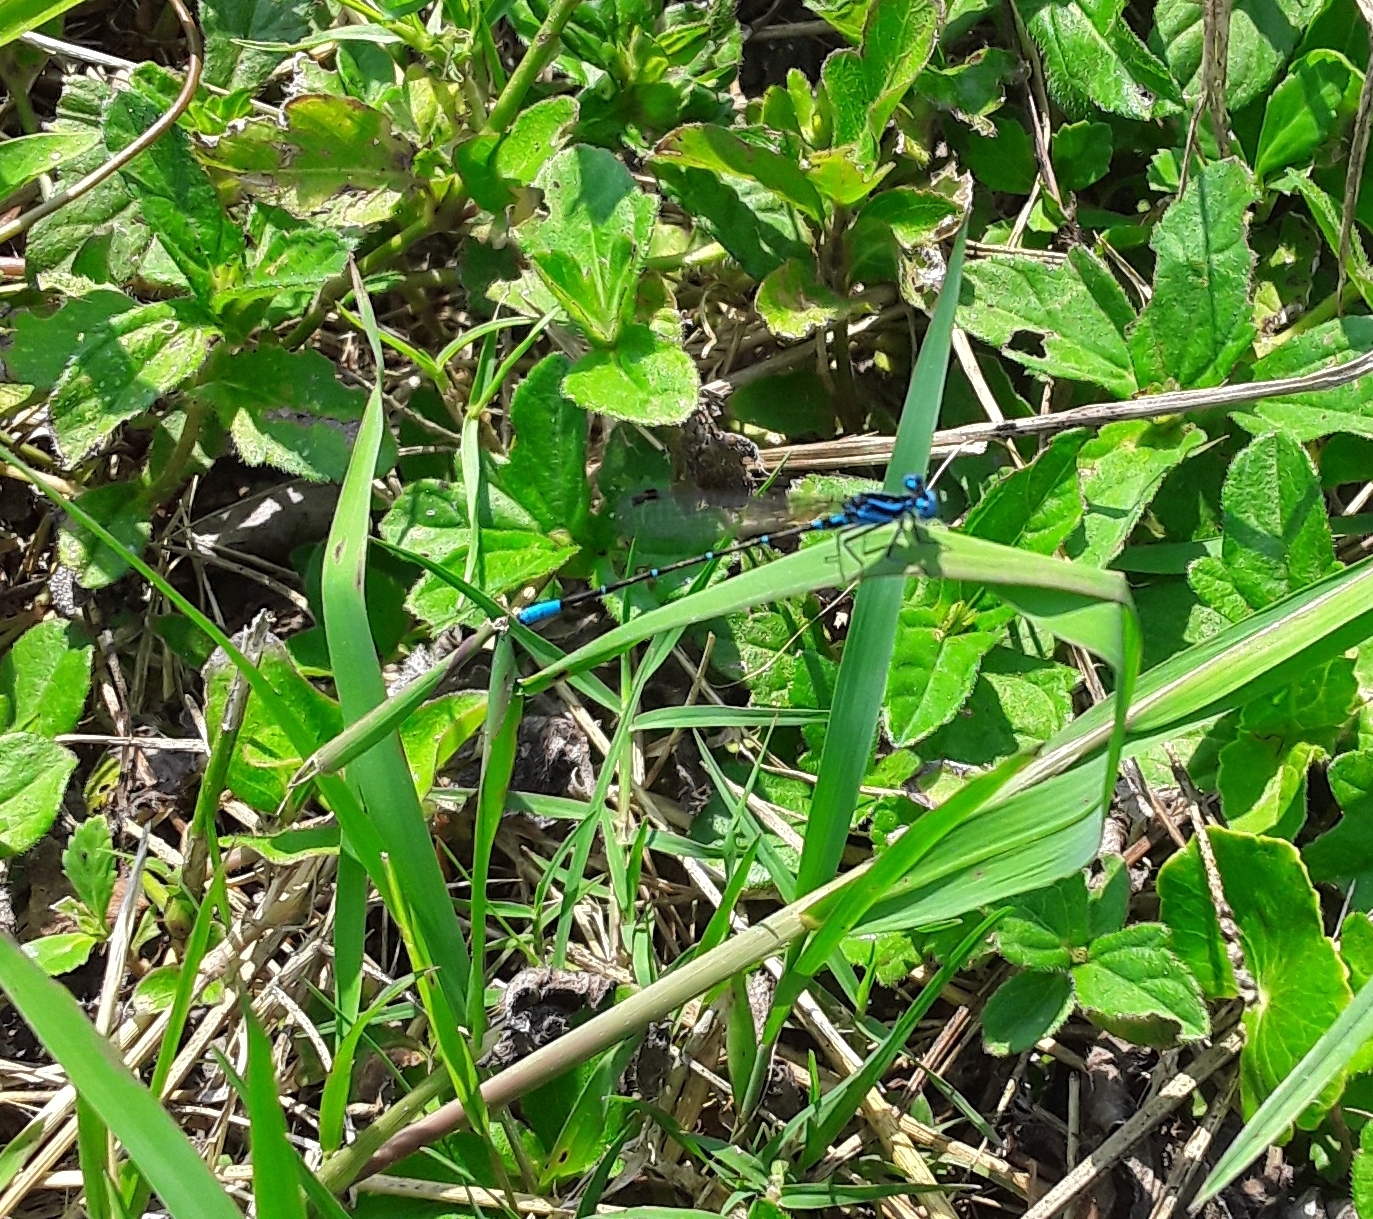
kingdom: Animalia
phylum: Arthropoda
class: Insecta
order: Odonata
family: Coenagrionidae
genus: Argia
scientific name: Argia gaumeri
